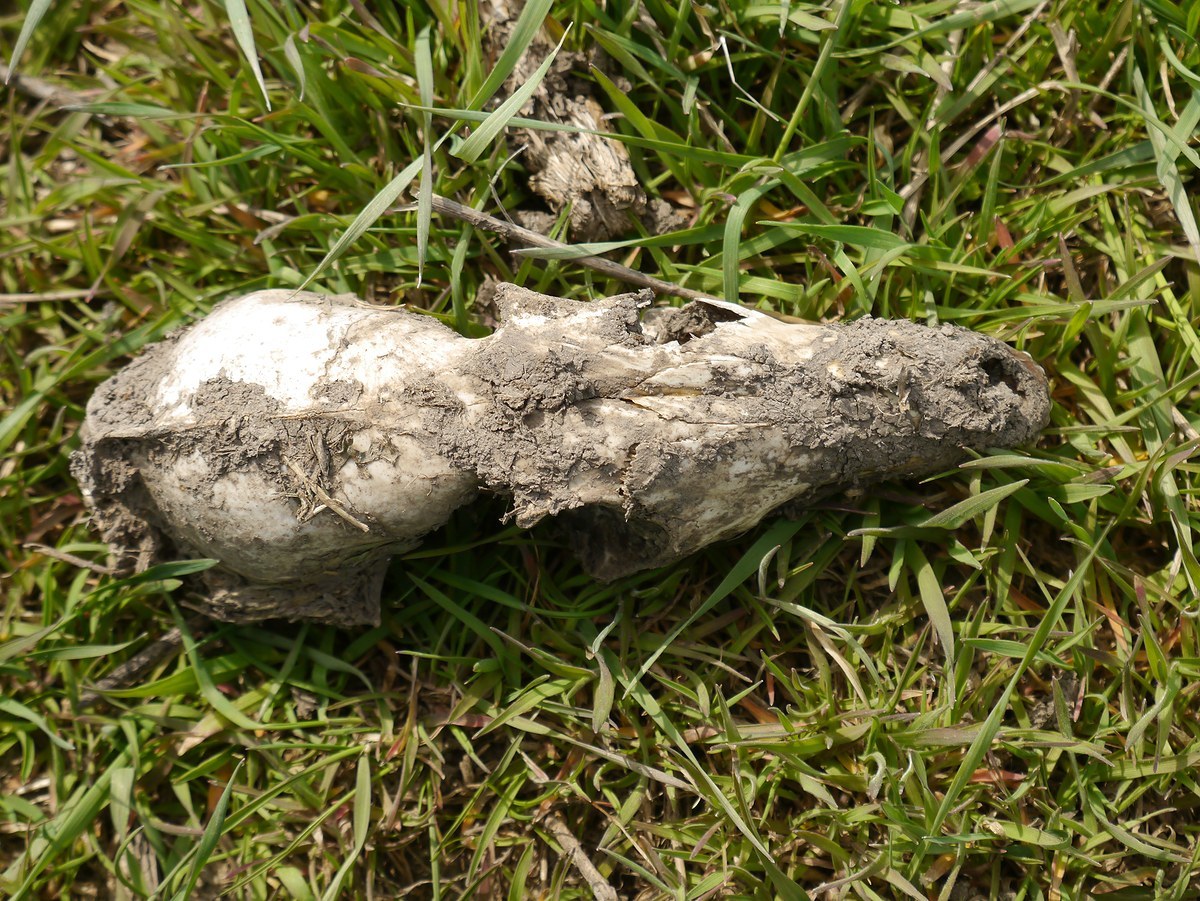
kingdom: Animalia
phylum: Chordata
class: Mammalia
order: Carnivora
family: Canidae
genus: Vulpes
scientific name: Vulpes vulpes
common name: Red fox
